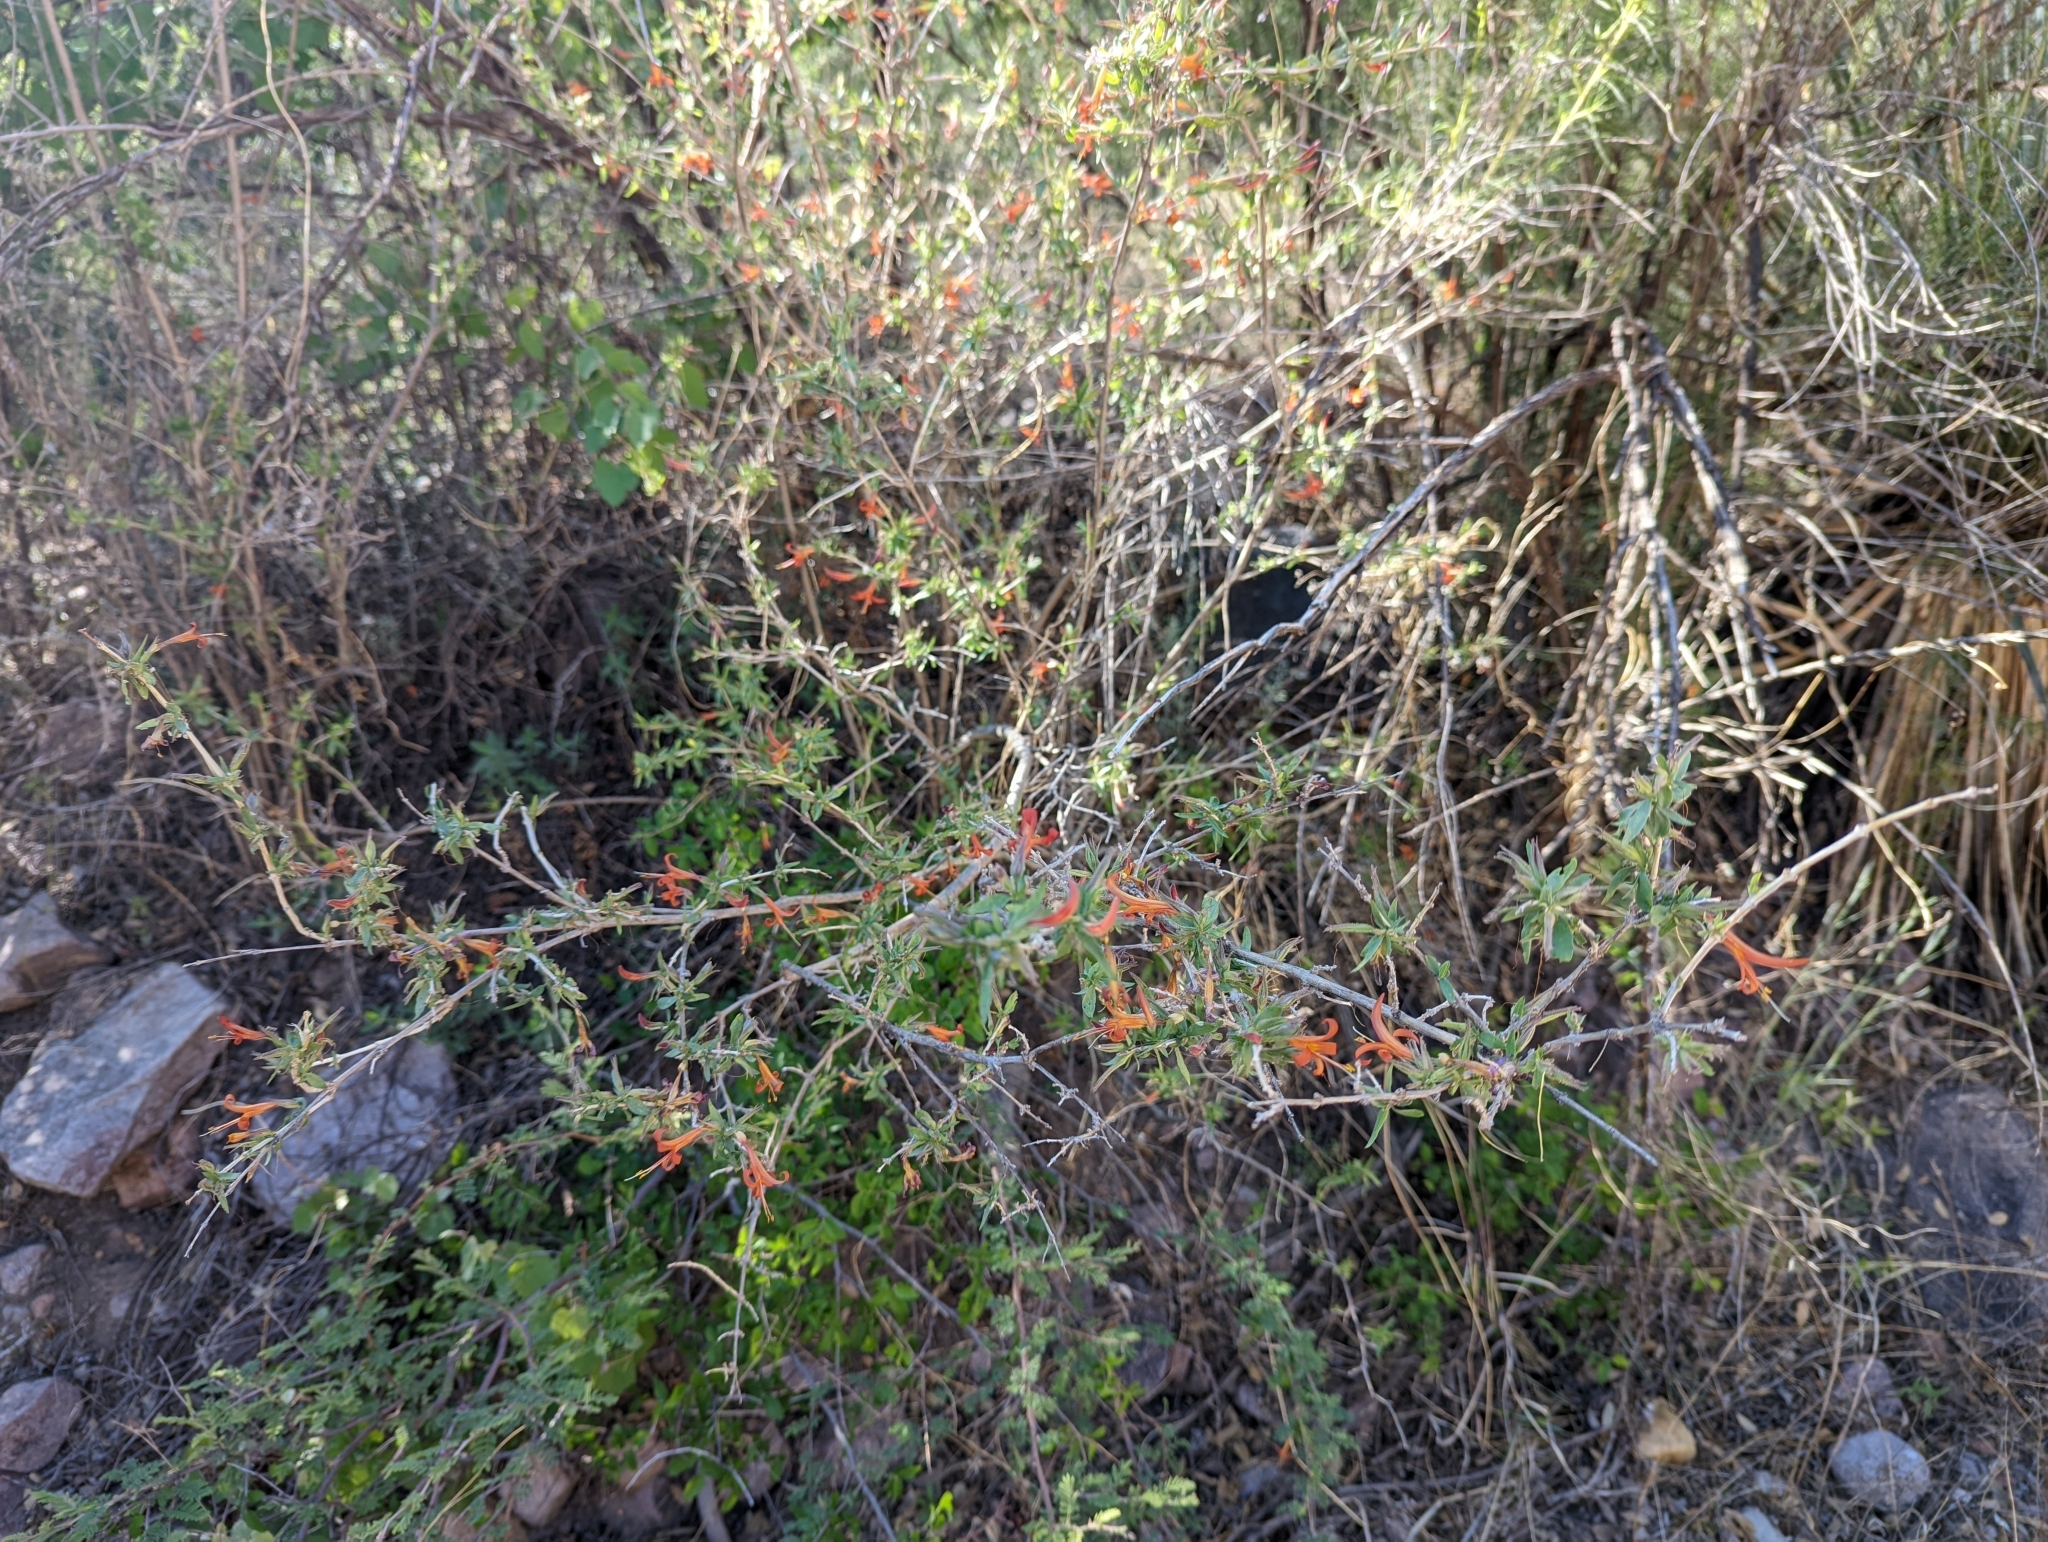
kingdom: Plantae
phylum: Tracheophyta
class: Magnoliopsida
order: Lamiales
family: Acanthaceae
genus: Anisacanthus
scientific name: Anisacanthus thurberi
